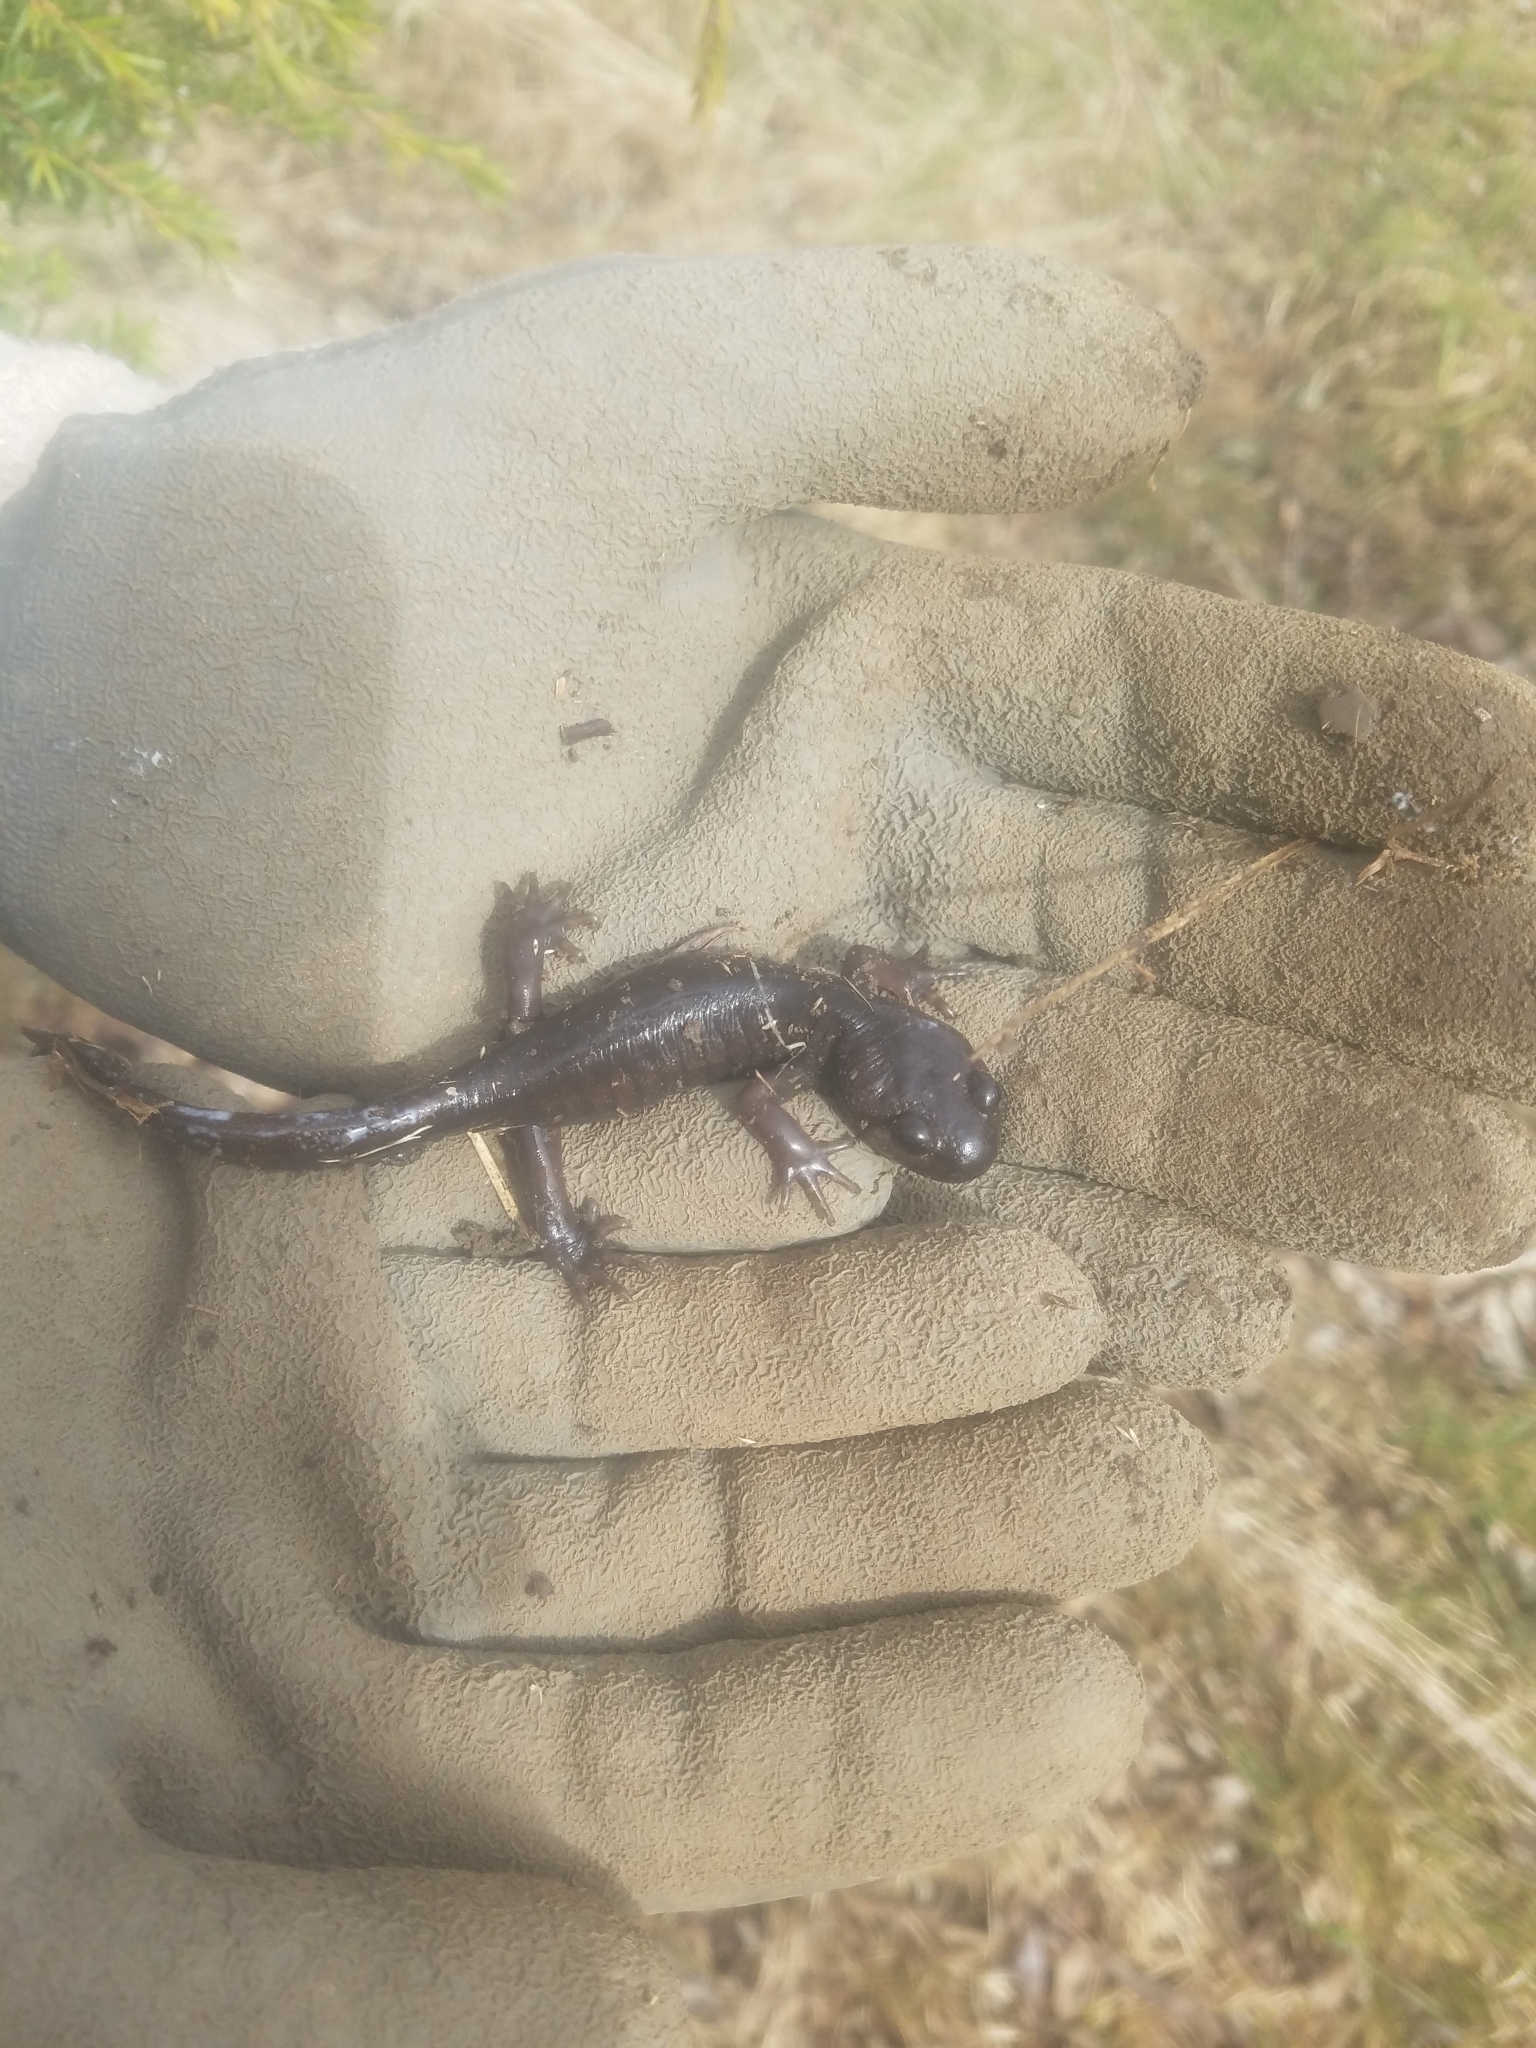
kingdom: Animalia
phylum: Chordata
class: Amphibia
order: Caudata
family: Ambystomatidae
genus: Ambystoma
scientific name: Ambystoma gracile
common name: Northwestern salamander
